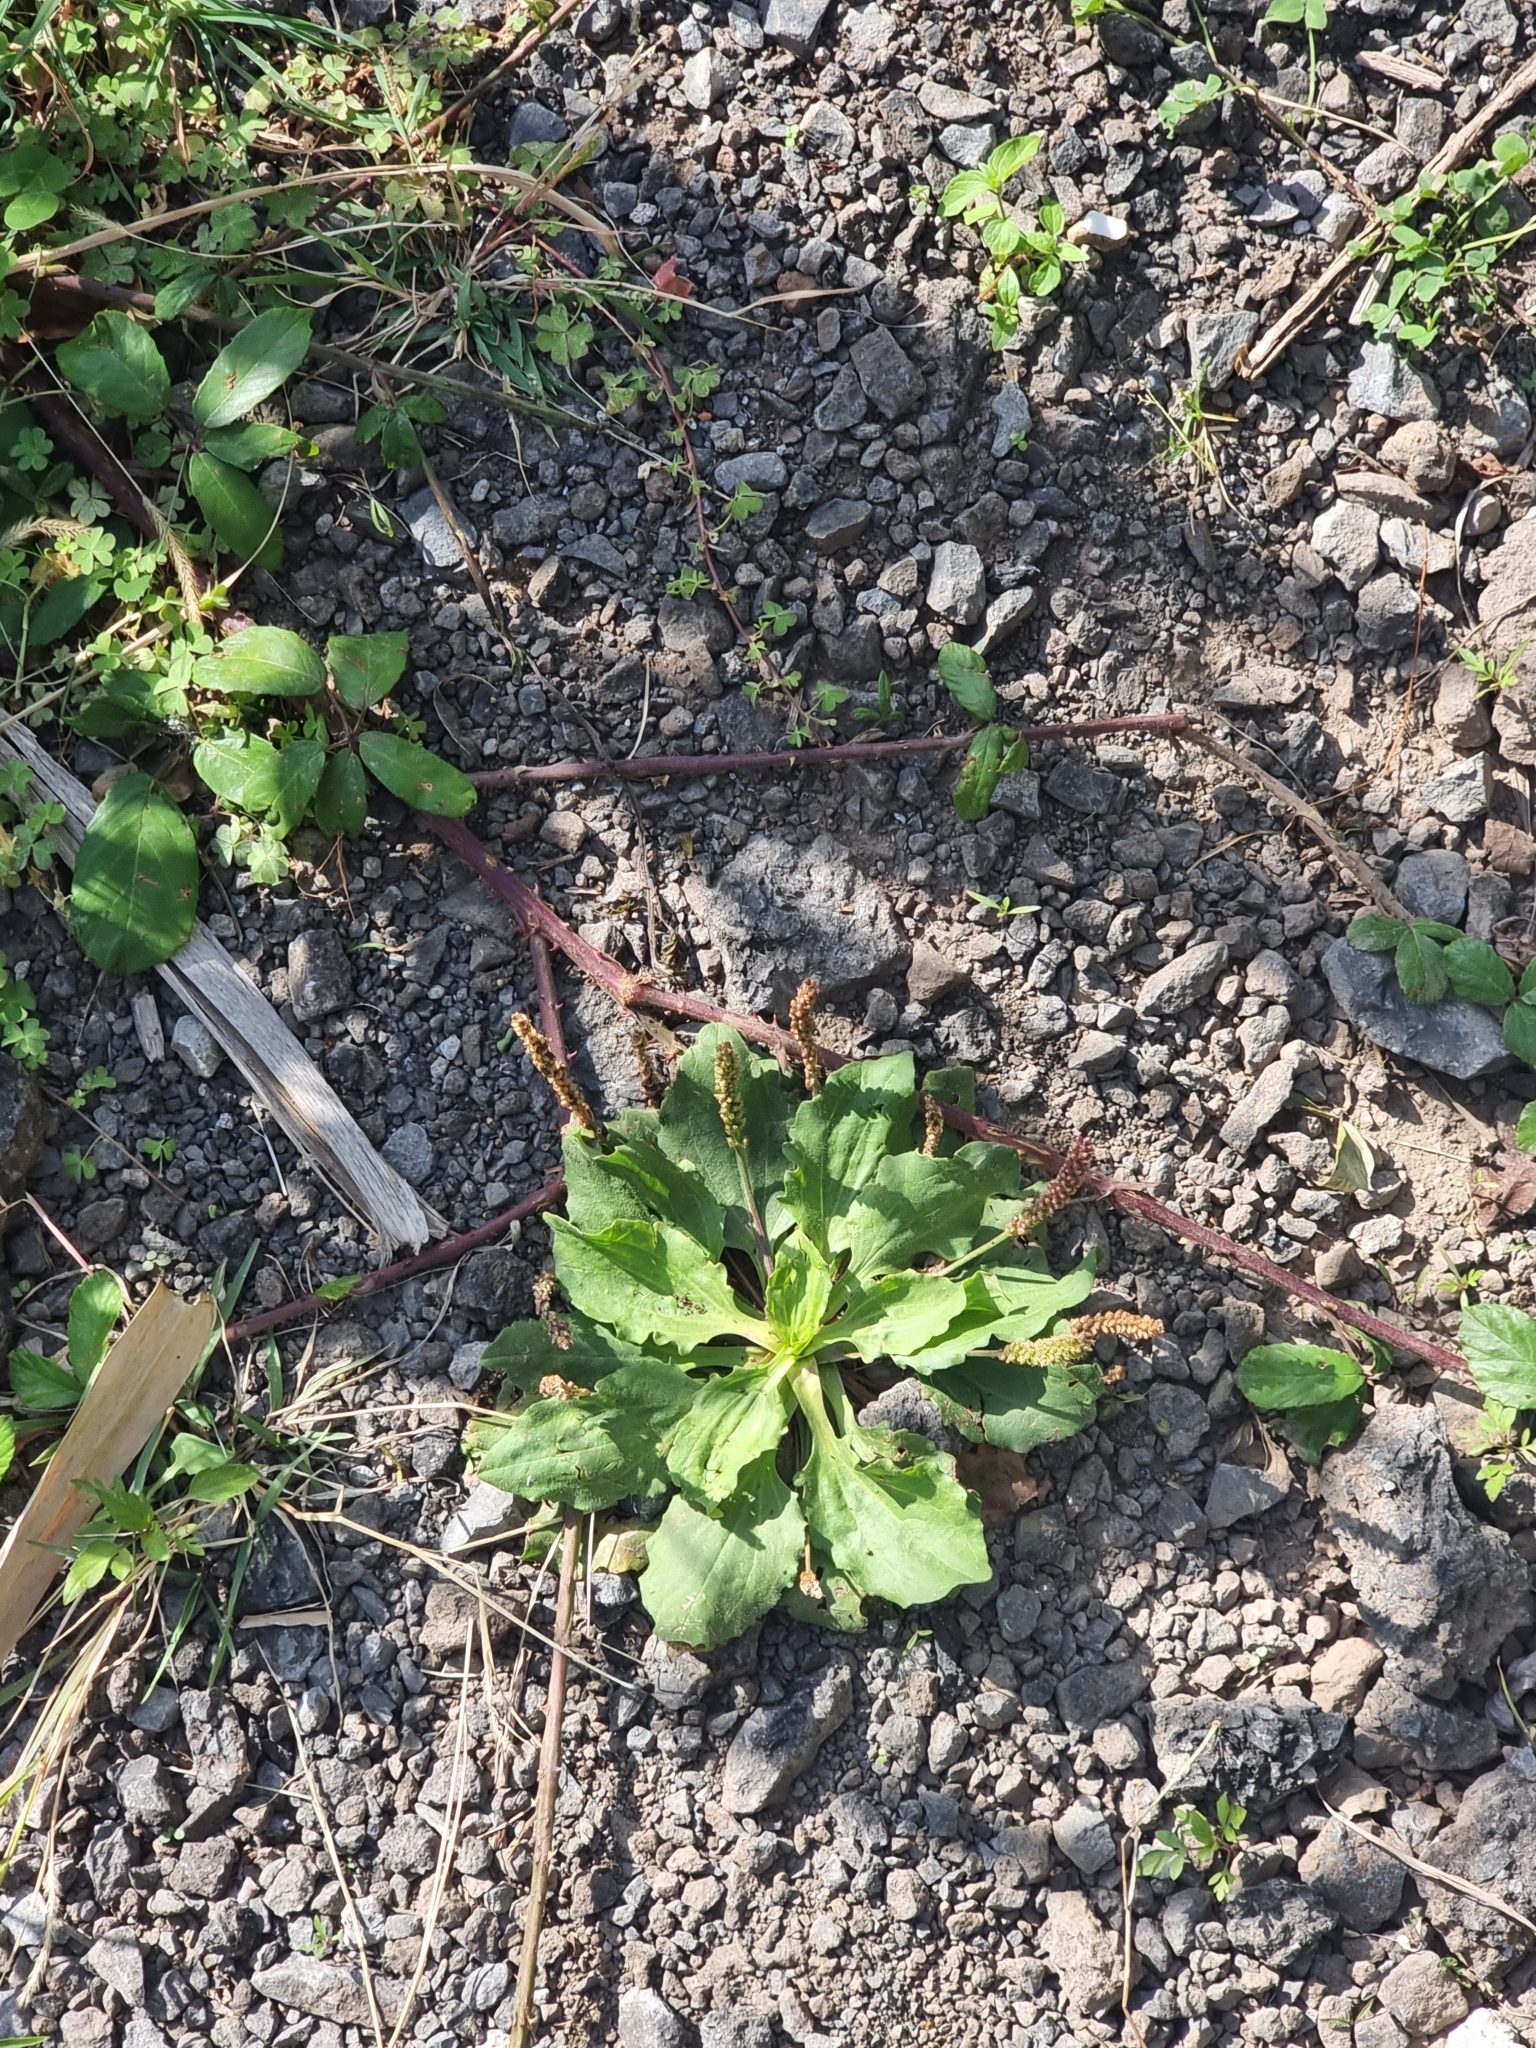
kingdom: Plantae
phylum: Tracheophyta
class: Magnoliopsida
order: Lamiales
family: Plantaginaceae
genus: Plantago
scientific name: Plantago major
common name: Common plantain
